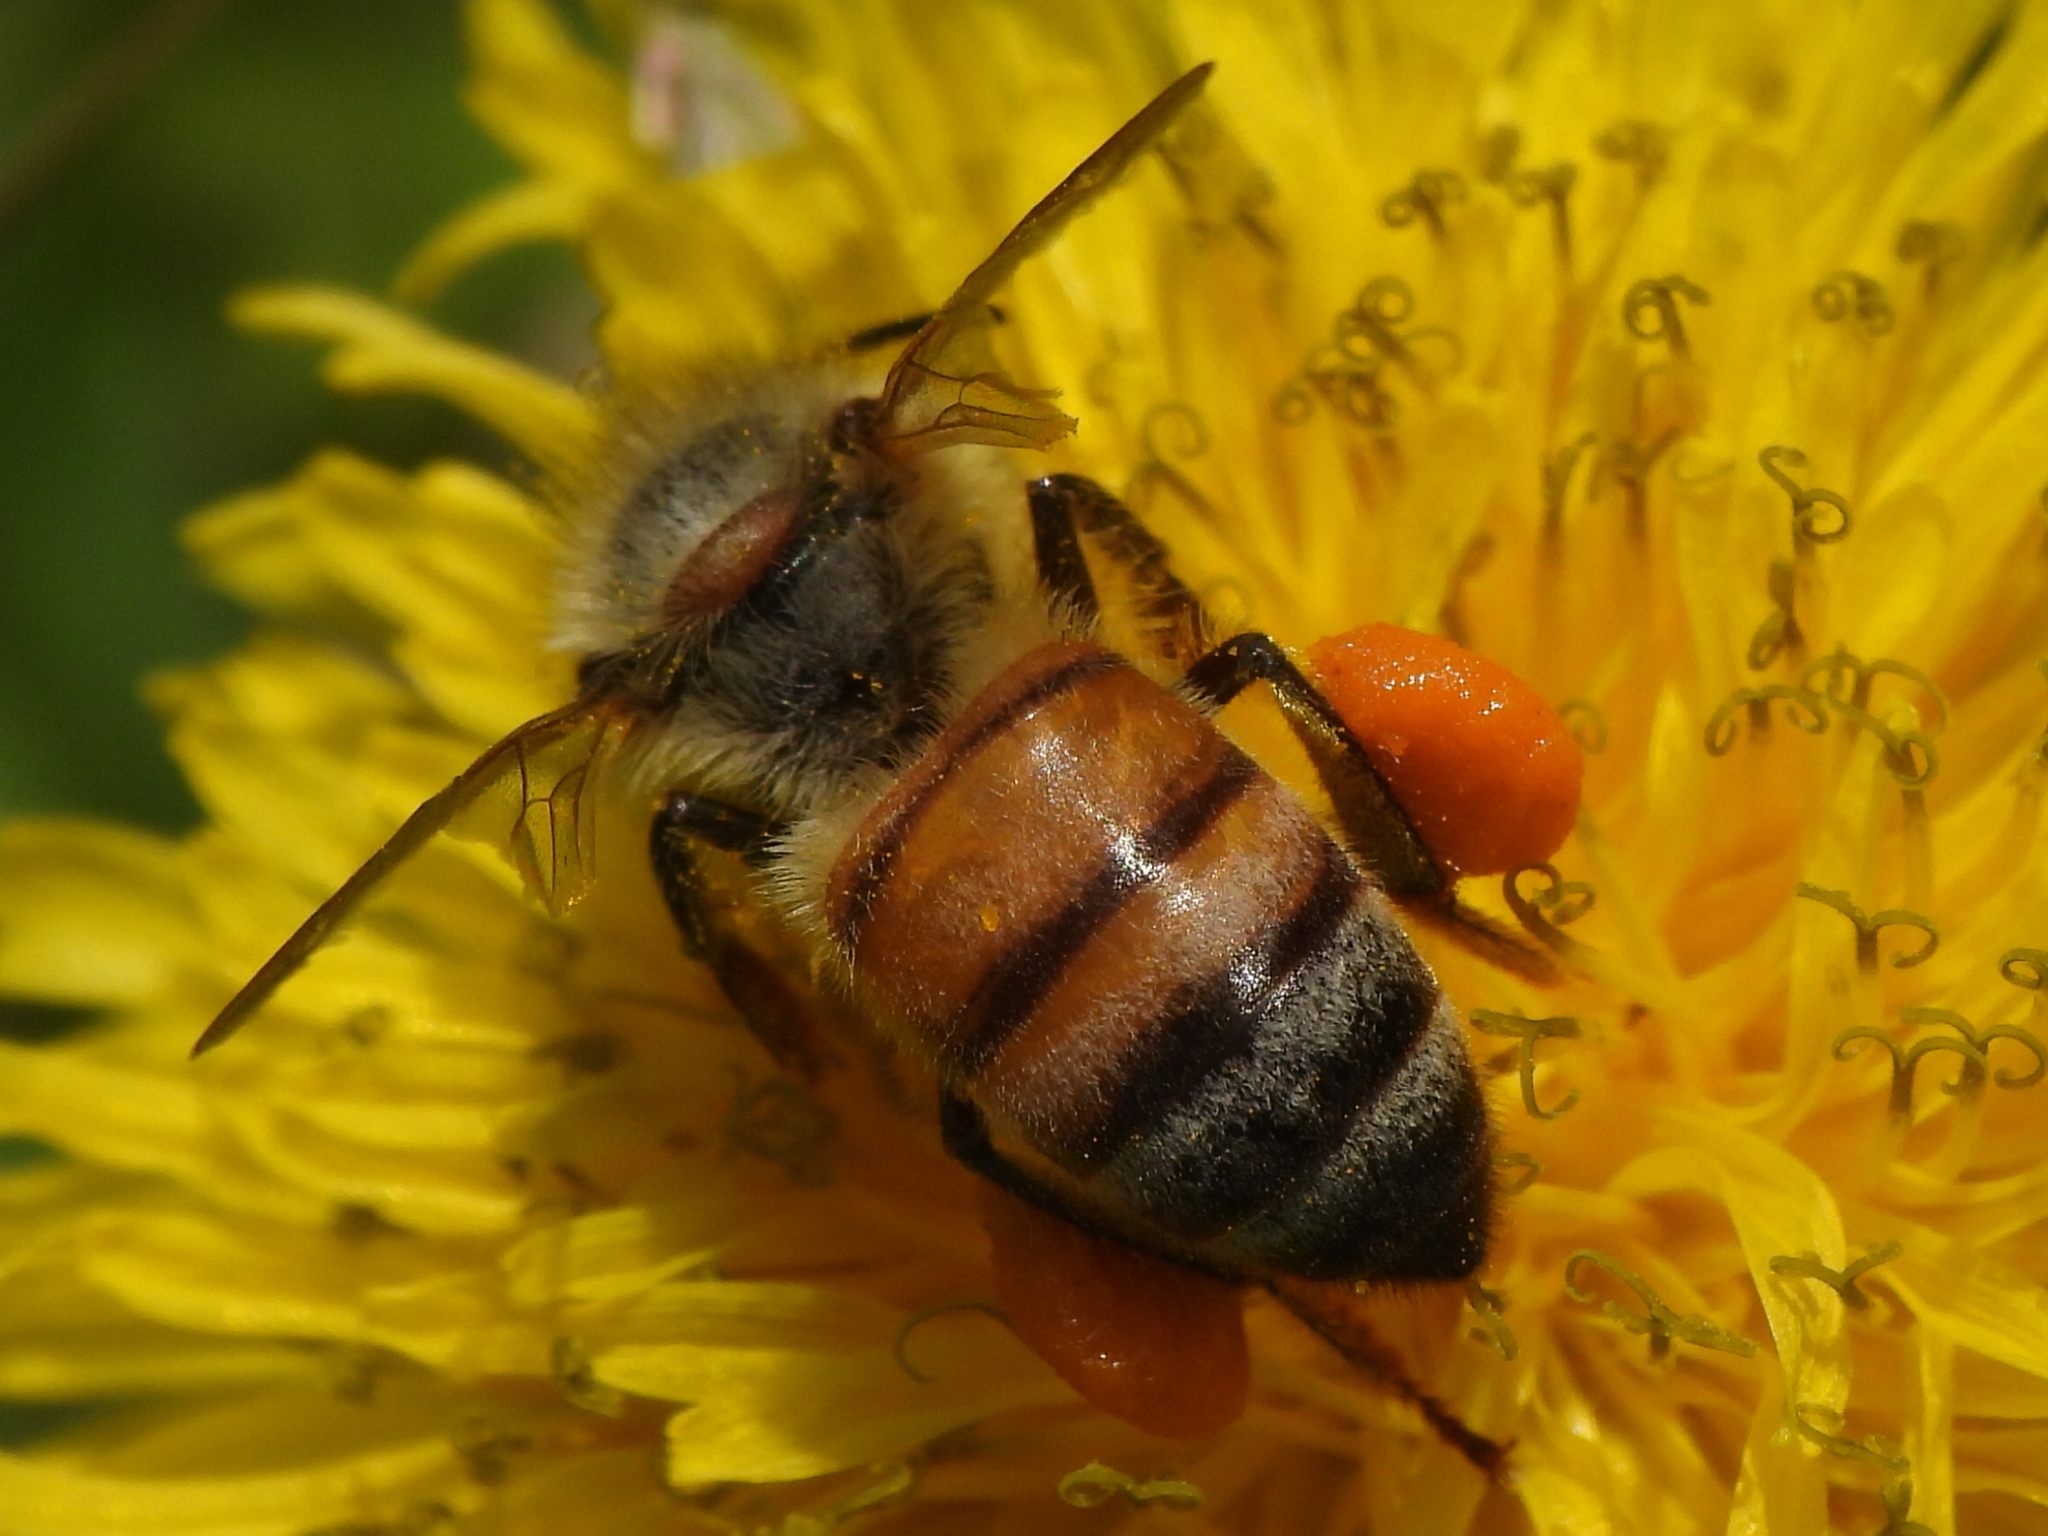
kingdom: Animalia
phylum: Arthropoda
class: Insecta
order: Hymenoptera
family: Apidae
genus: Apis
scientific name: Apis mellifera
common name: Honey bee
